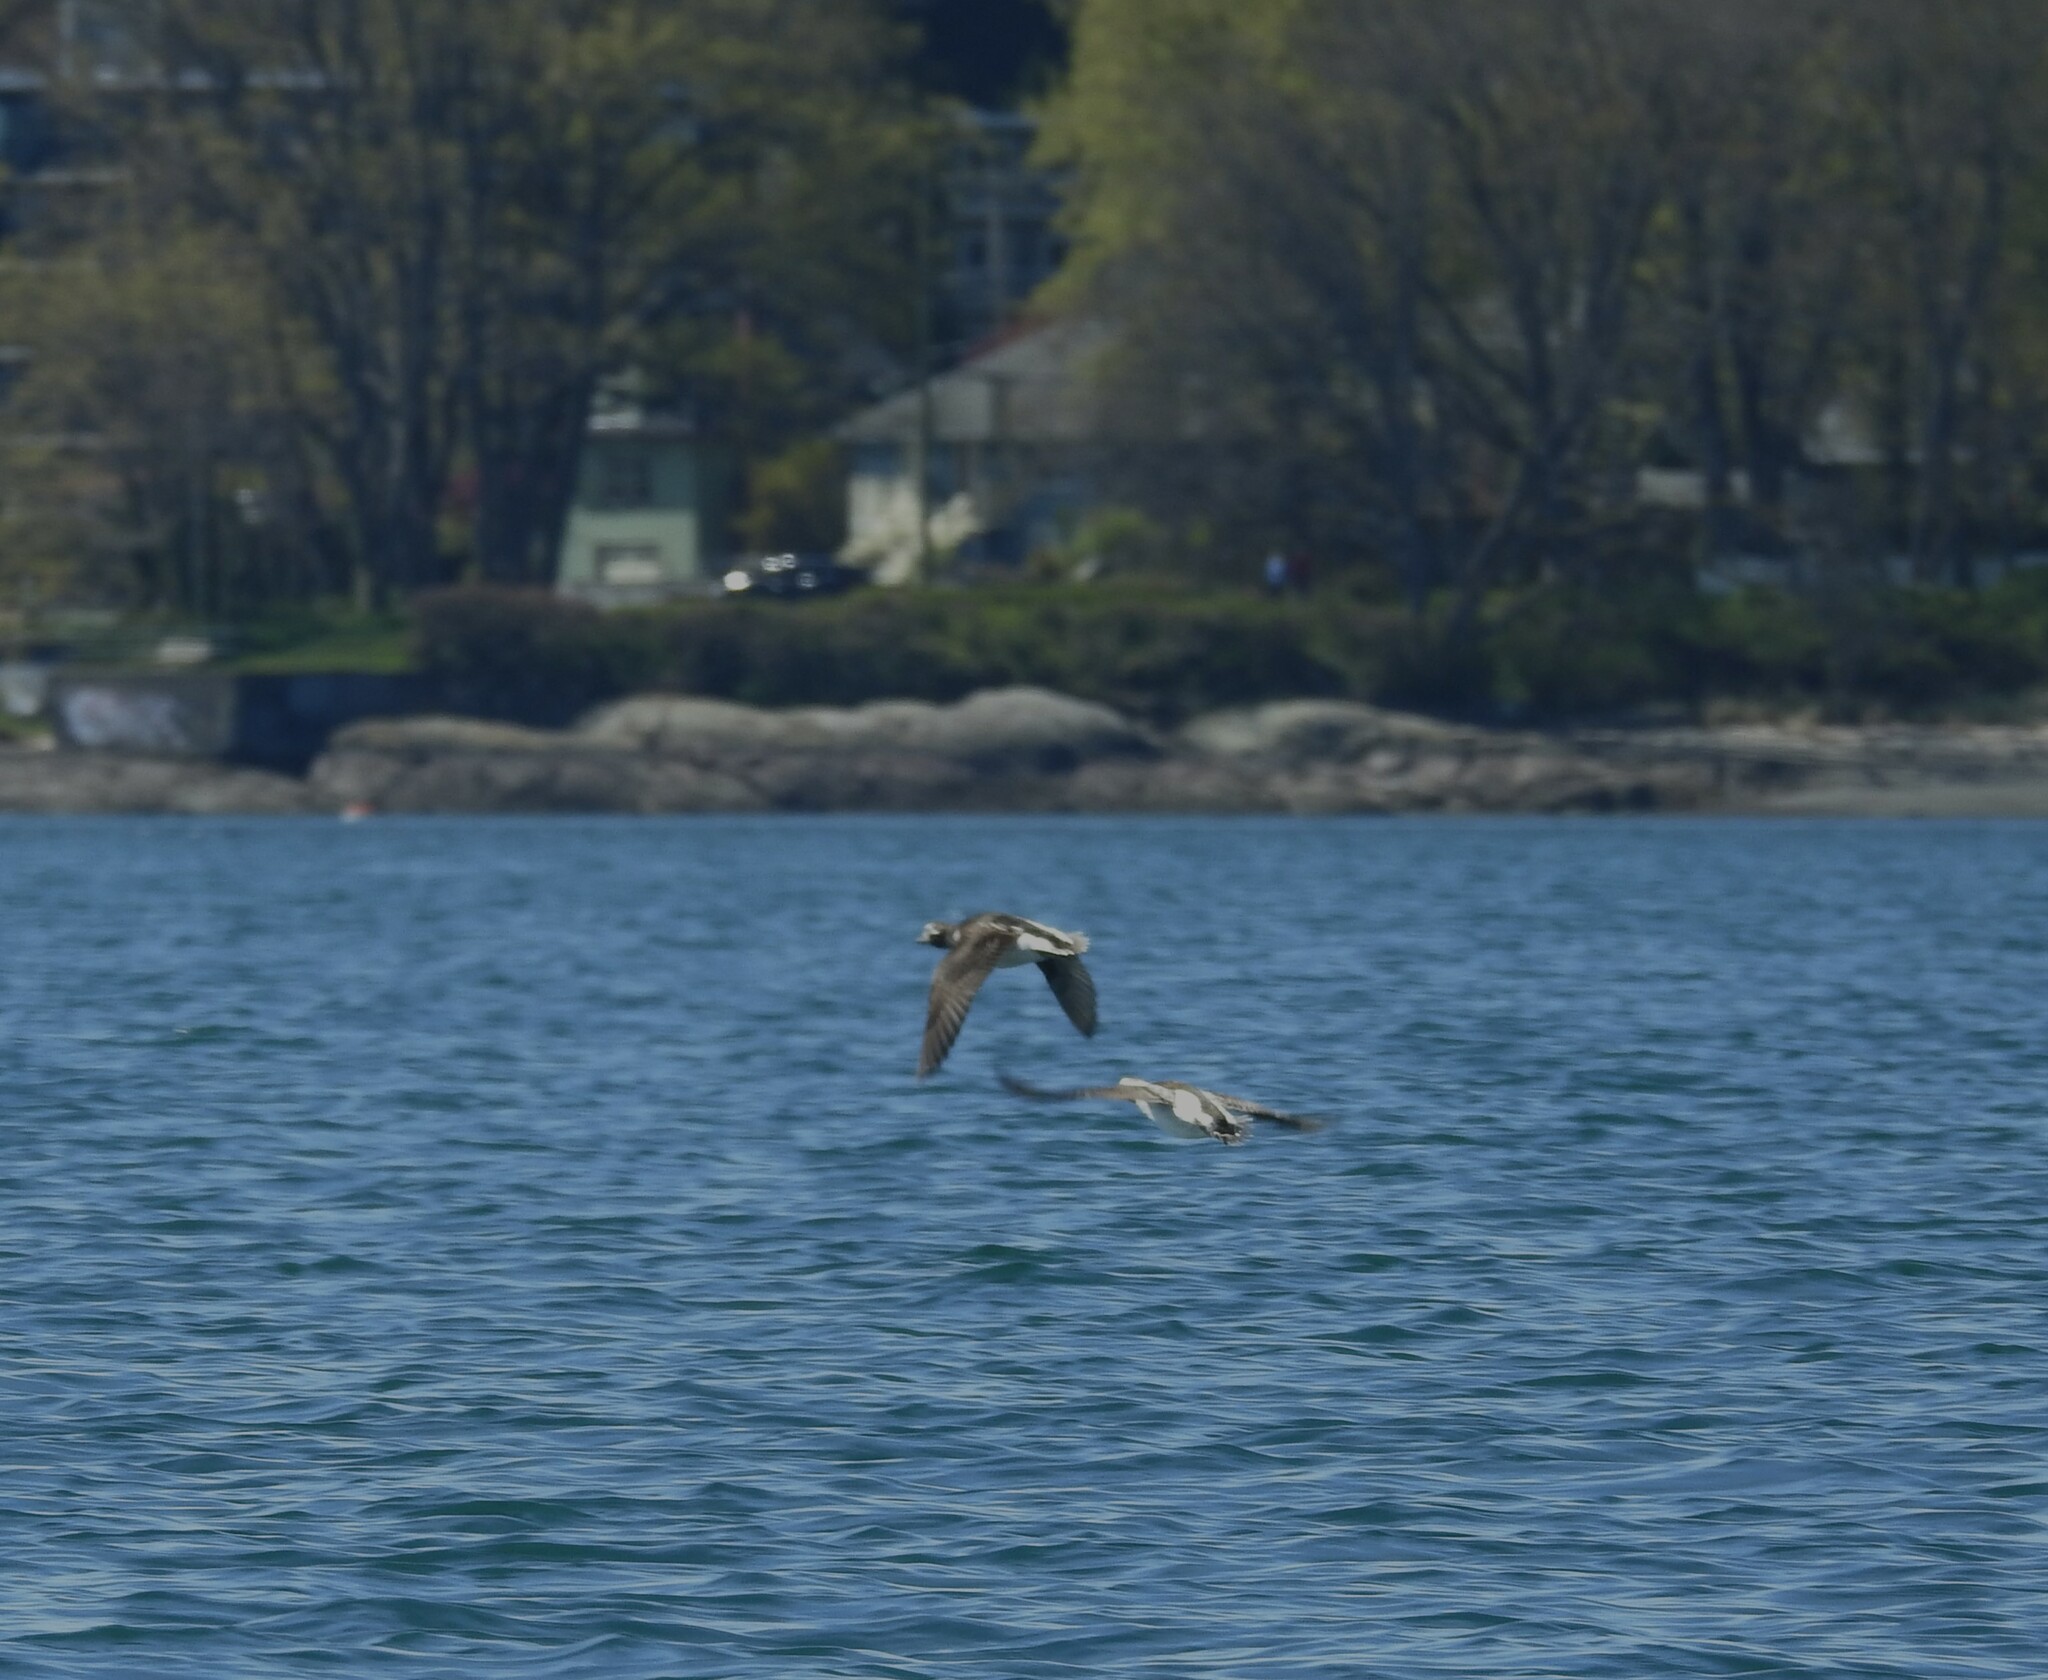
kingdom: Animalia
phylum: Chordata
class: Aves
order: Anseriformes
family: Anatidae
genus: Clangula
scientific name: Clangula hyemalis
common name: Long-tailed duck
